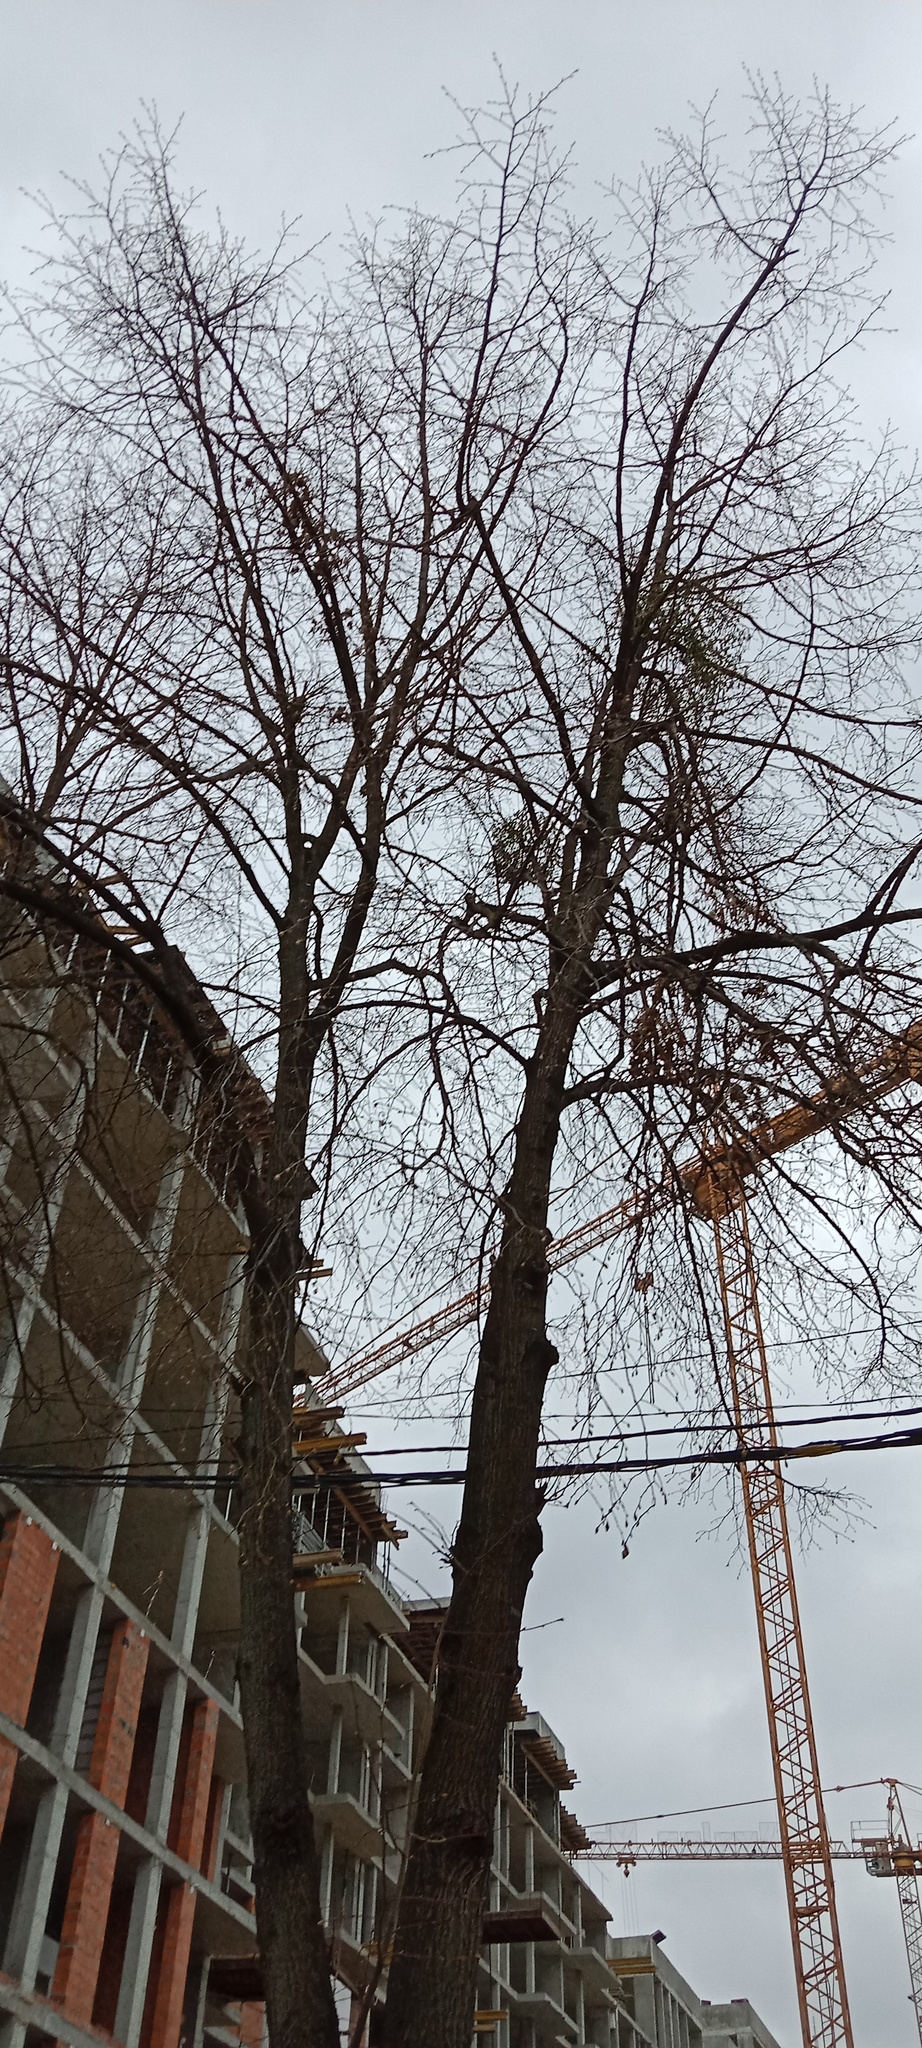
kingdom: Plantae
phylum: Tracheophyta
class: Magnoliopsida
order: Santalales
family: Viscaceae
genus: Viscum
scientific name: Viscum album
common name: Mistletoe
